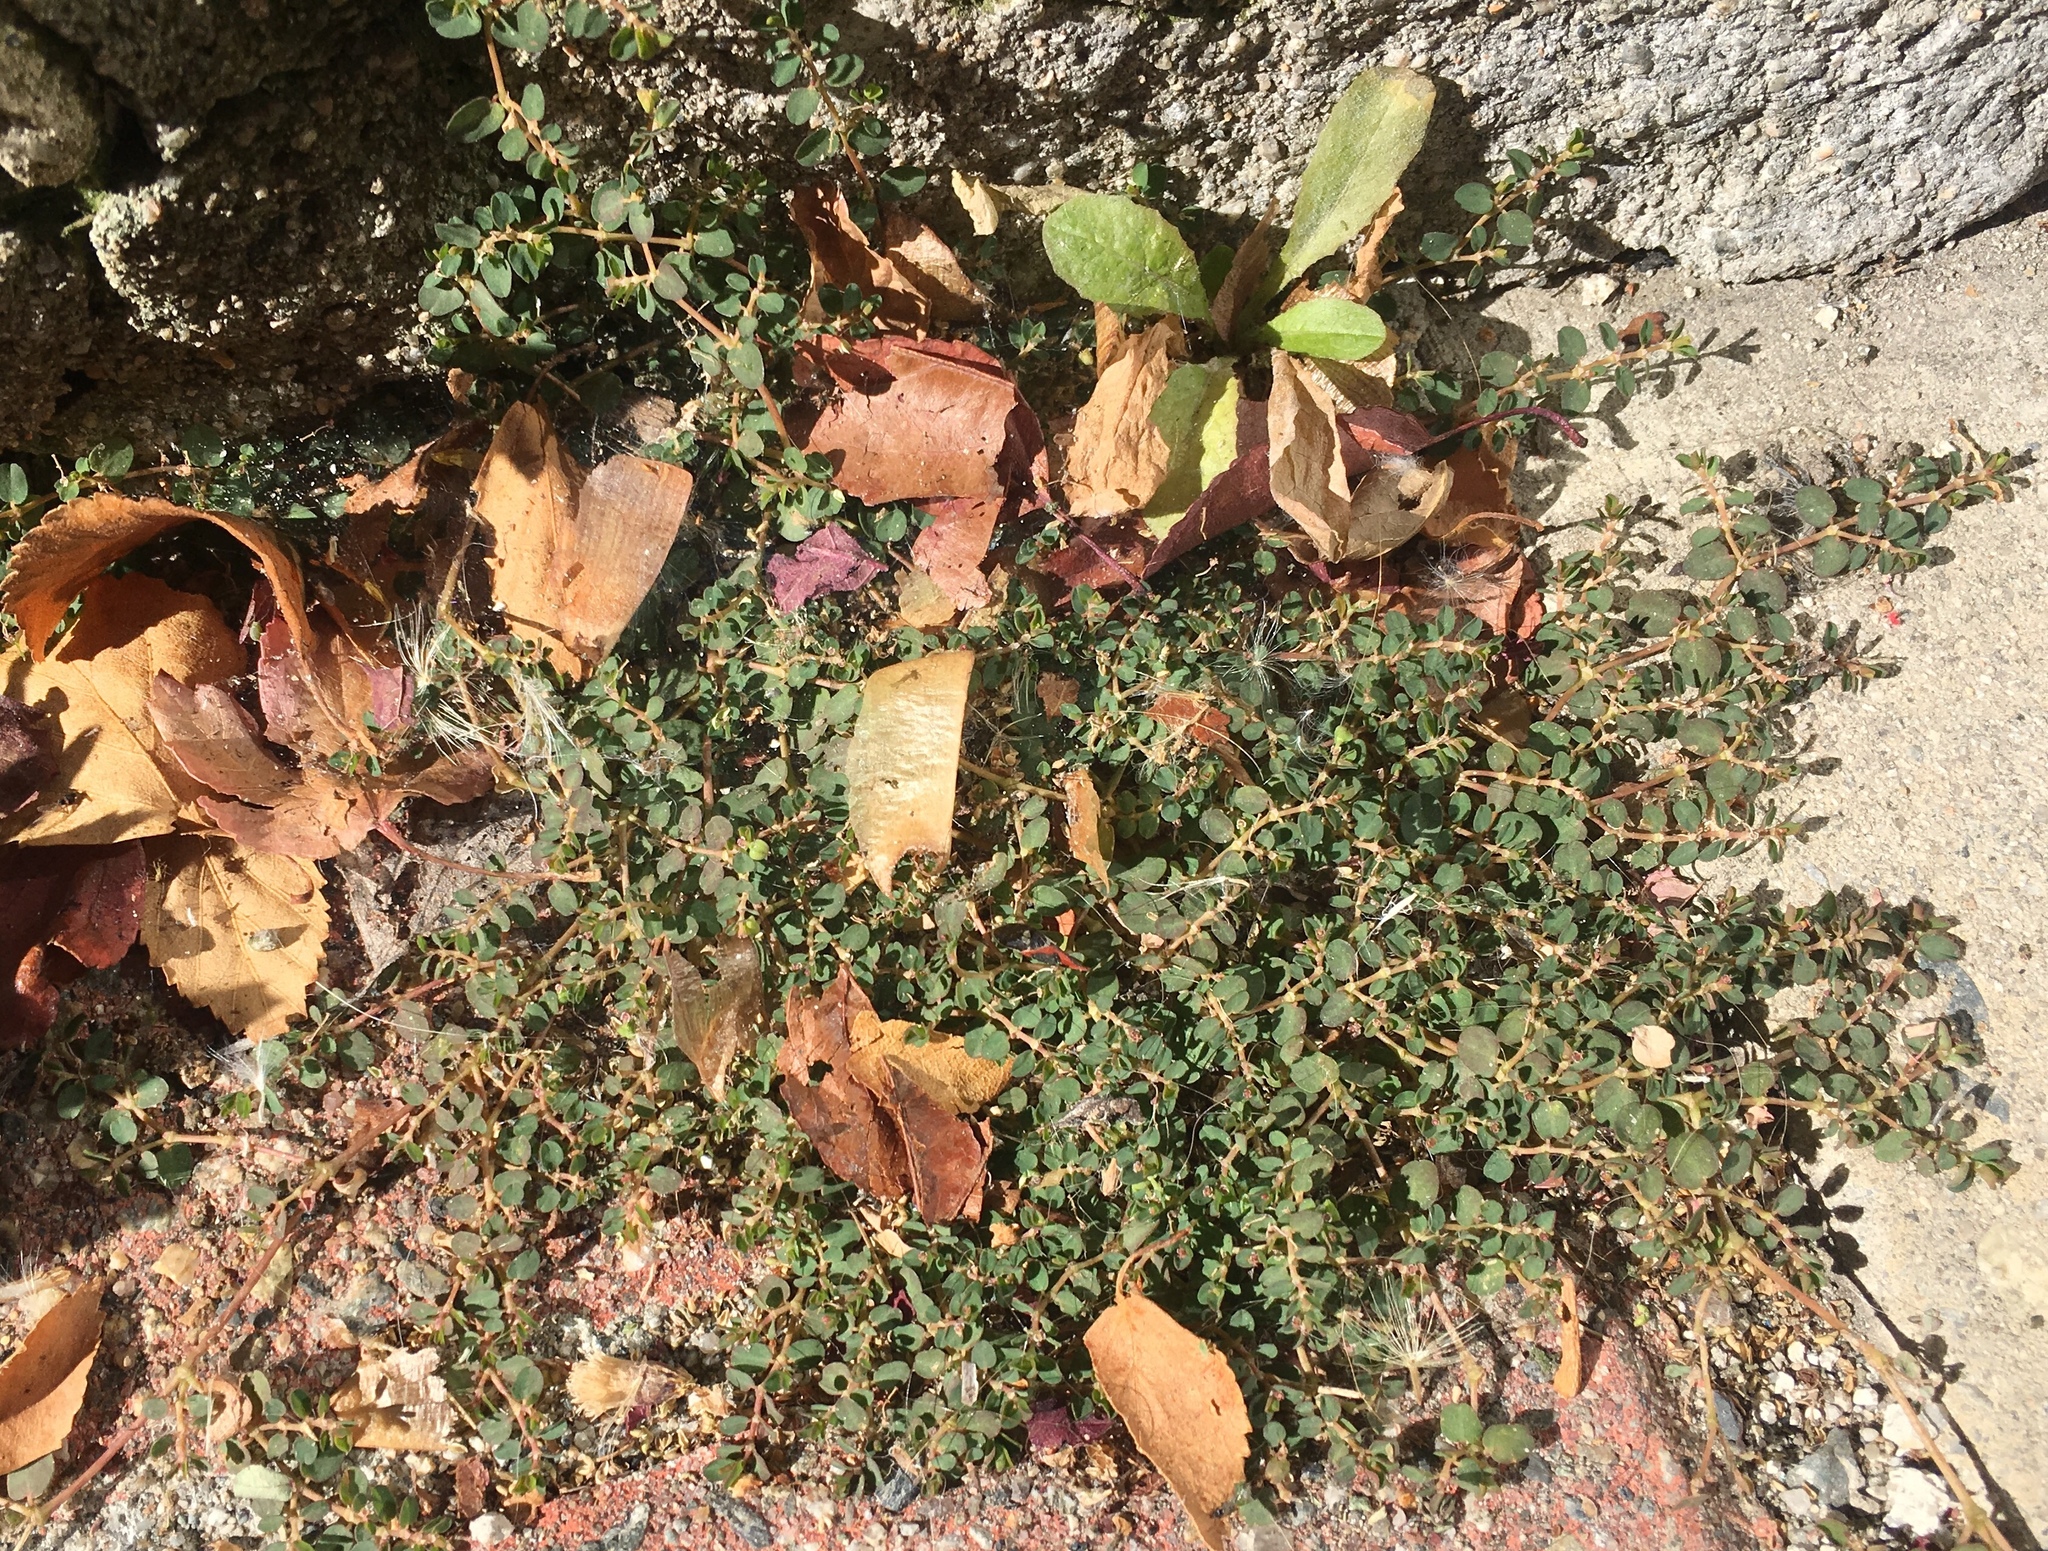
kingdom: Plantae
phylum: Tracheophyta
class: Magnoliopsida
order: Malpighiales
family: Euphorbiaceae
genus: Euphorbia
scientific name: Euphorbia serpens
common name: Matted sandmat
